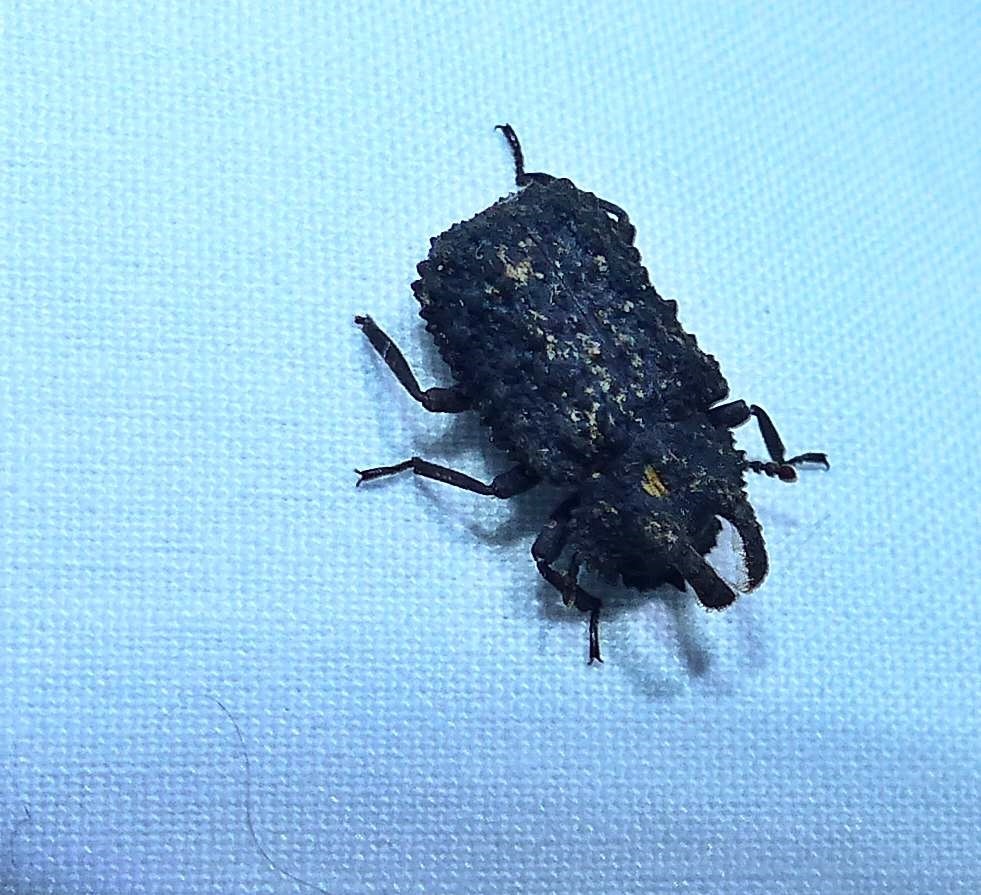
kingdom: Animalia
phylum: Arthropoda
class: Insecta
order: Coleoptera
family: Tenebrionidae
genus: Gnatocerus
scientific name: Gnatocerus cornutus
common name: Broad-horned flour beetle
